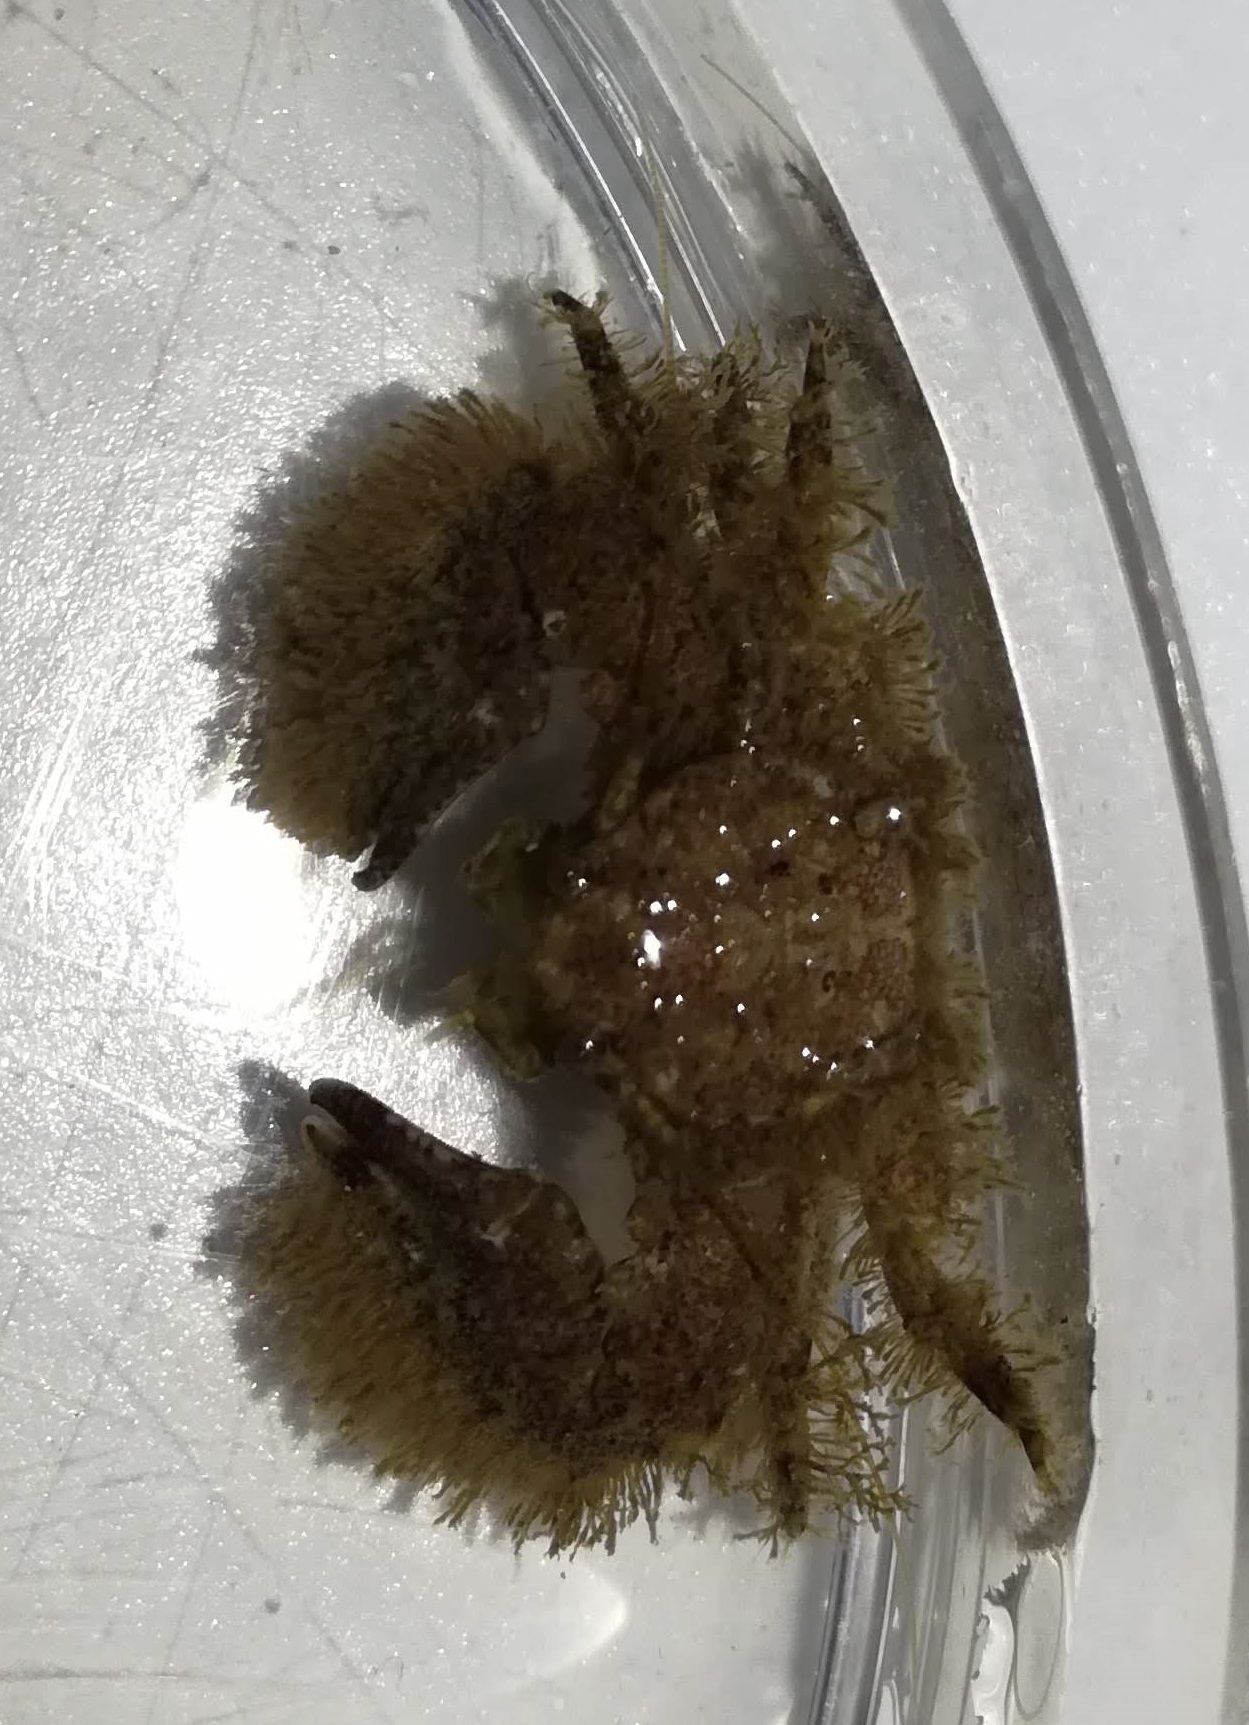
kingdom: Animalia
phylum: Arthropoda
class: Malacostraca
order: Decapoda
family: Porcellanidae
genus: Porcellana
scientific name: Porcellana platycheles
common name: Porcelain crab
